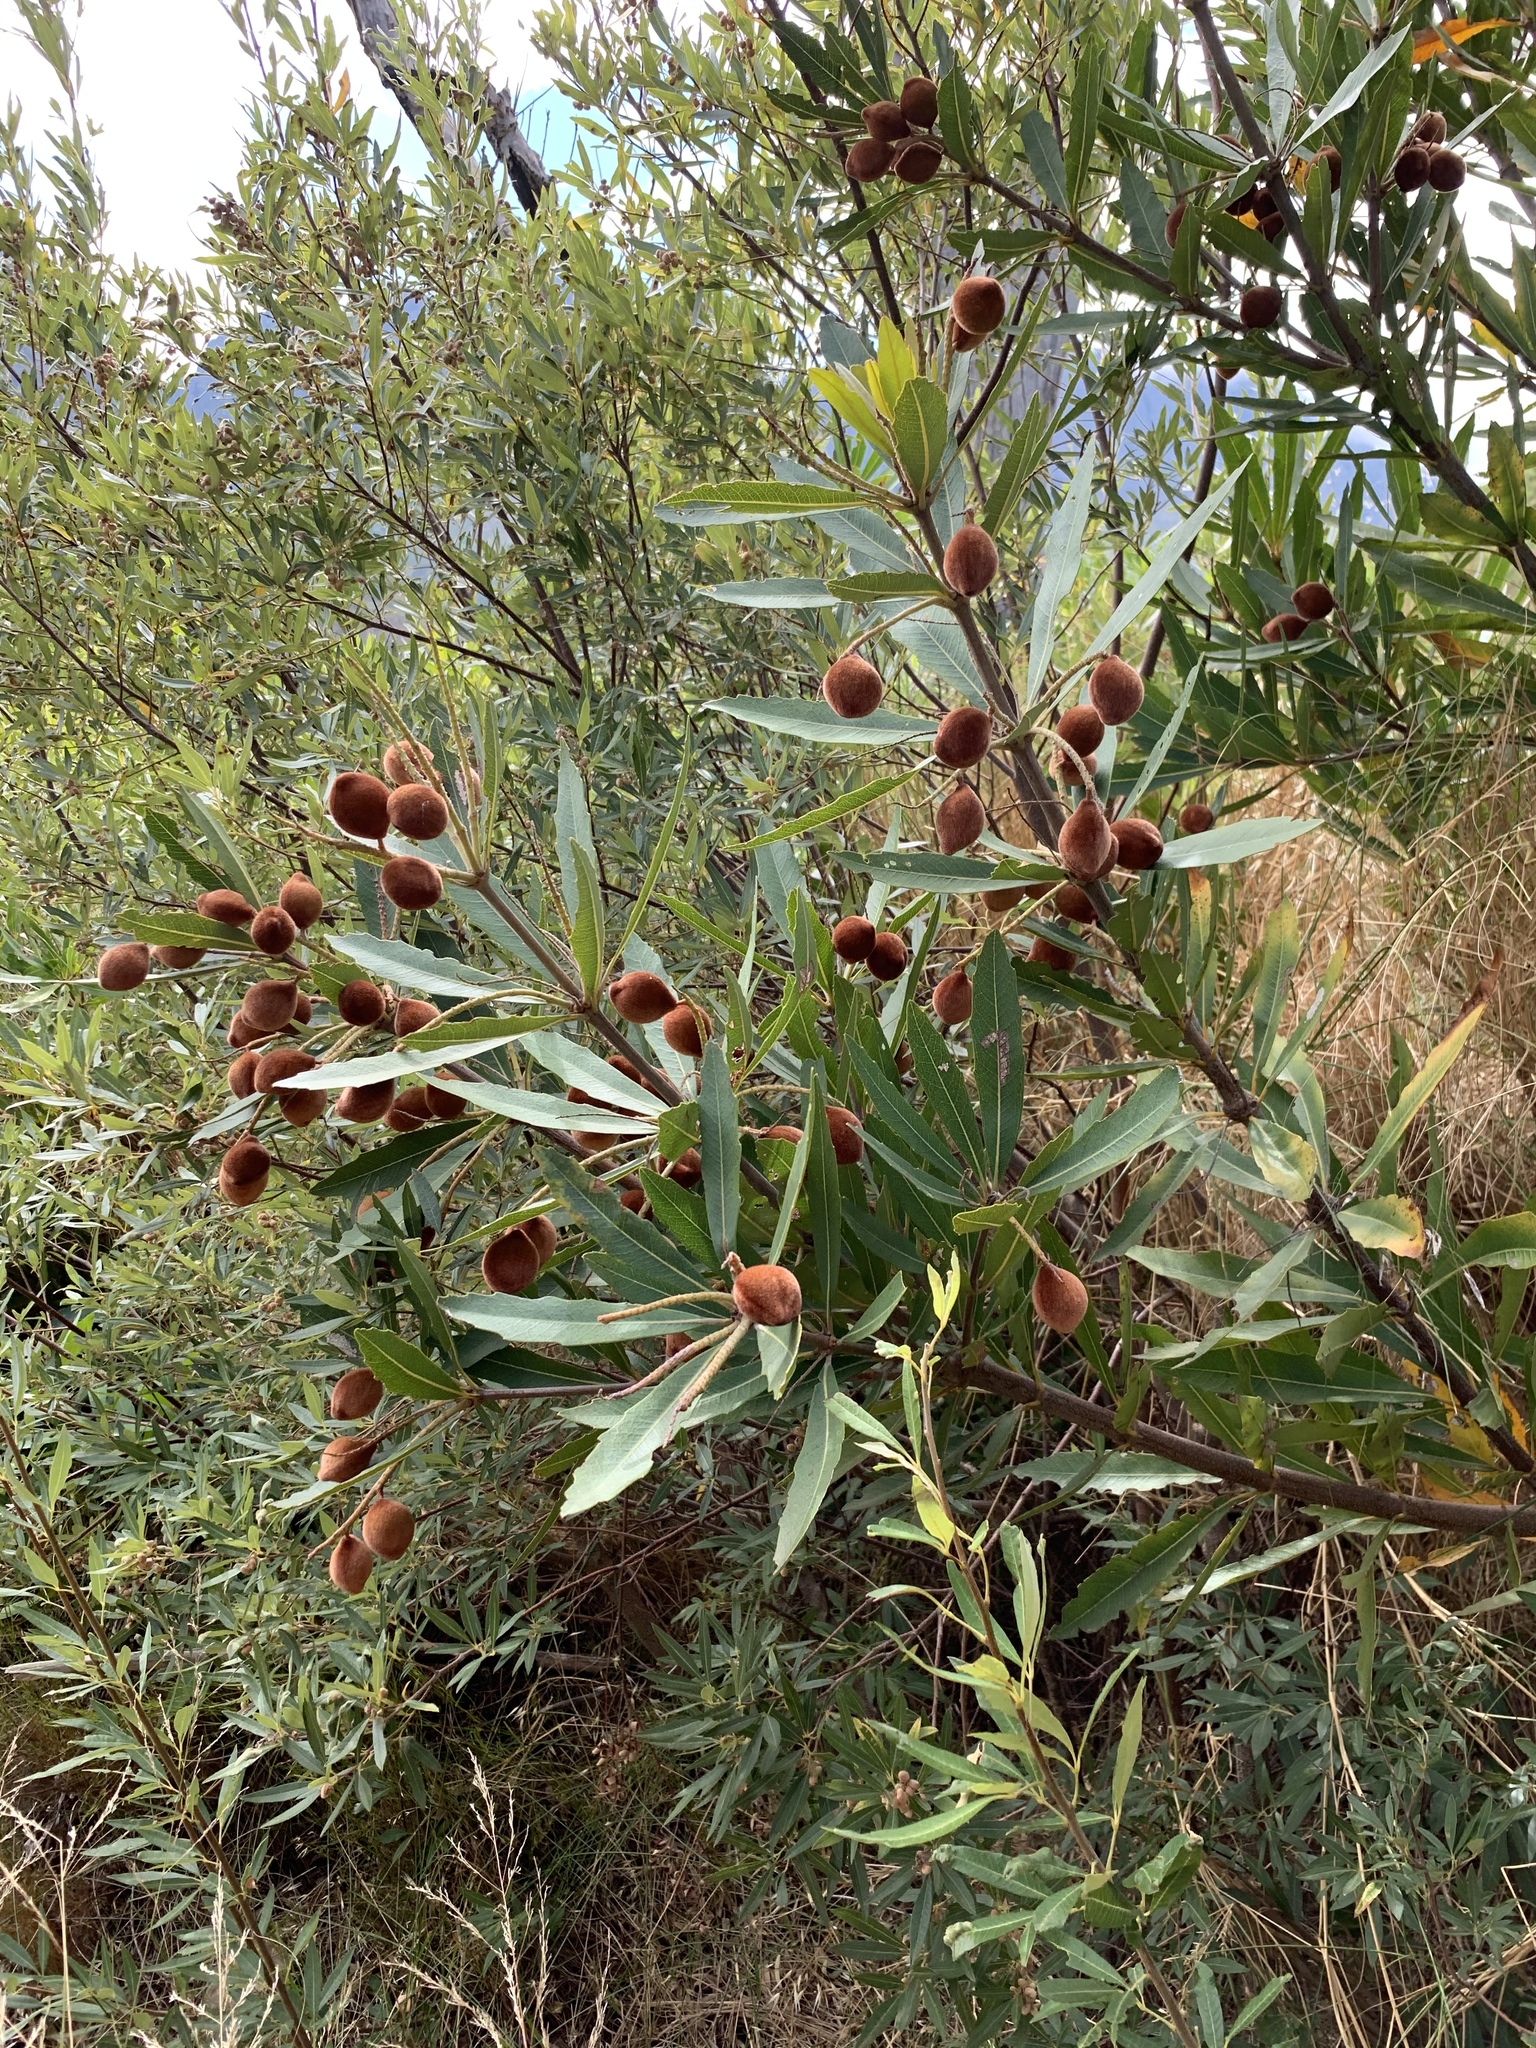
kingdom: Plantae
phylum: Tracheophyta
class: Magnoliopsida
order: Proteales
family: Proteaceae
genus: Brabejum
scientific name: Brabejum stellatifolium
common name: Wild almond
